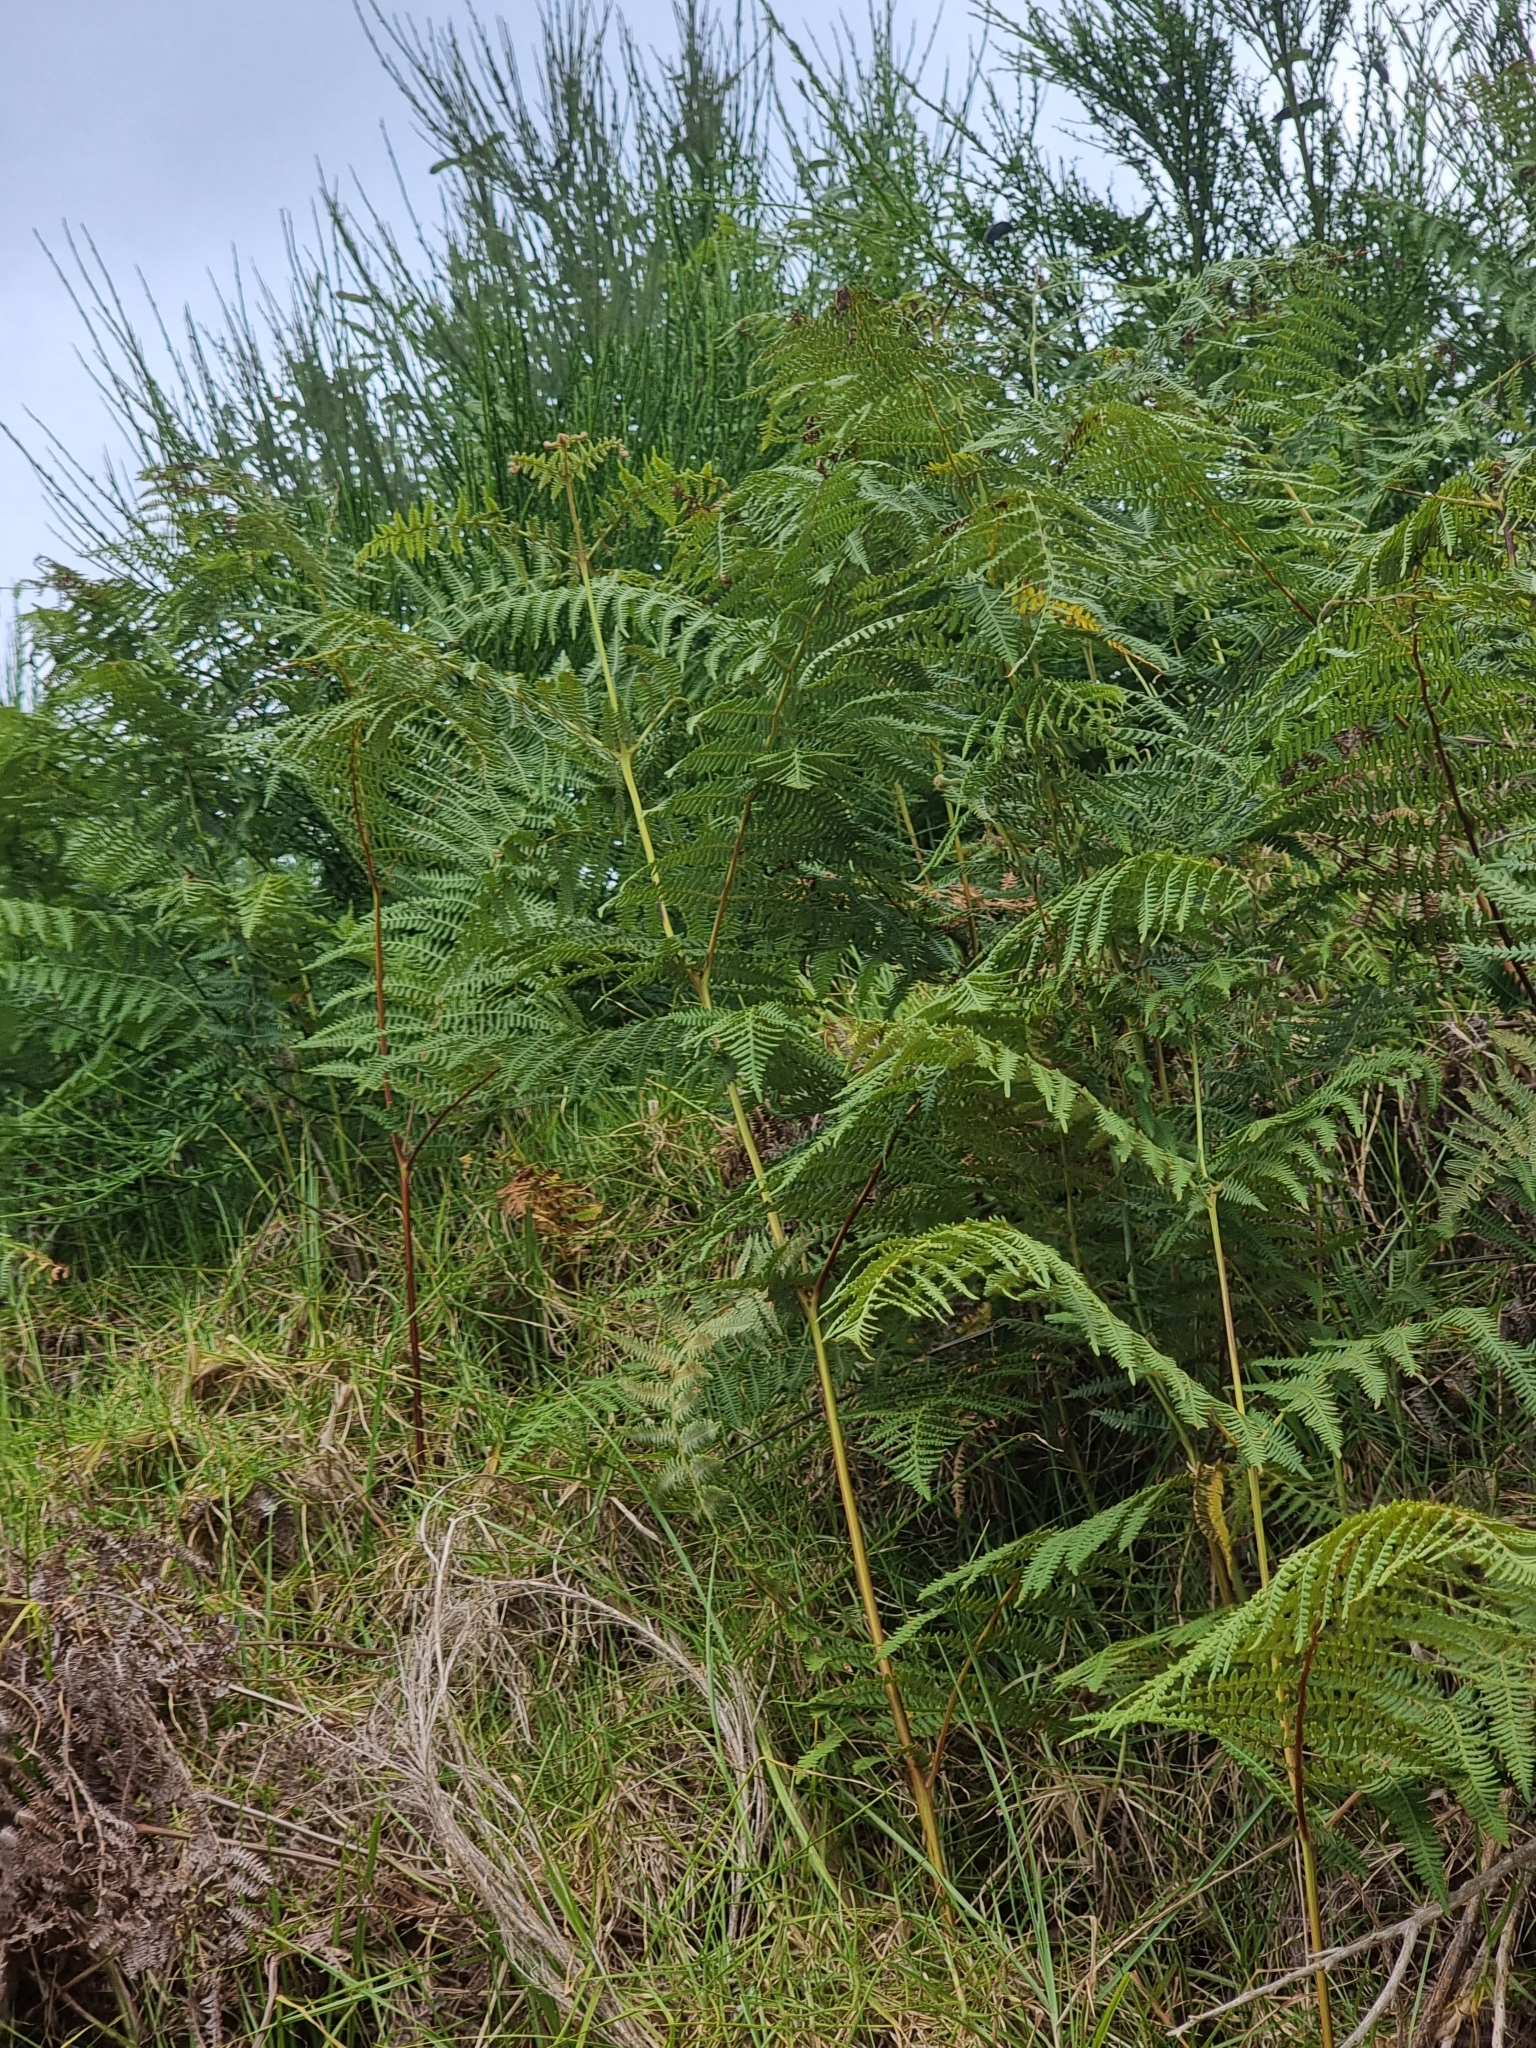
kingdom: Plantae
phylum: Tracheophyta
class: Polypodiopsida
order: Polypodiales
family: Dennstaedtiaceae
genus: Pteridium
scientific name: Pteridium aquilinum
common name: Bracken
